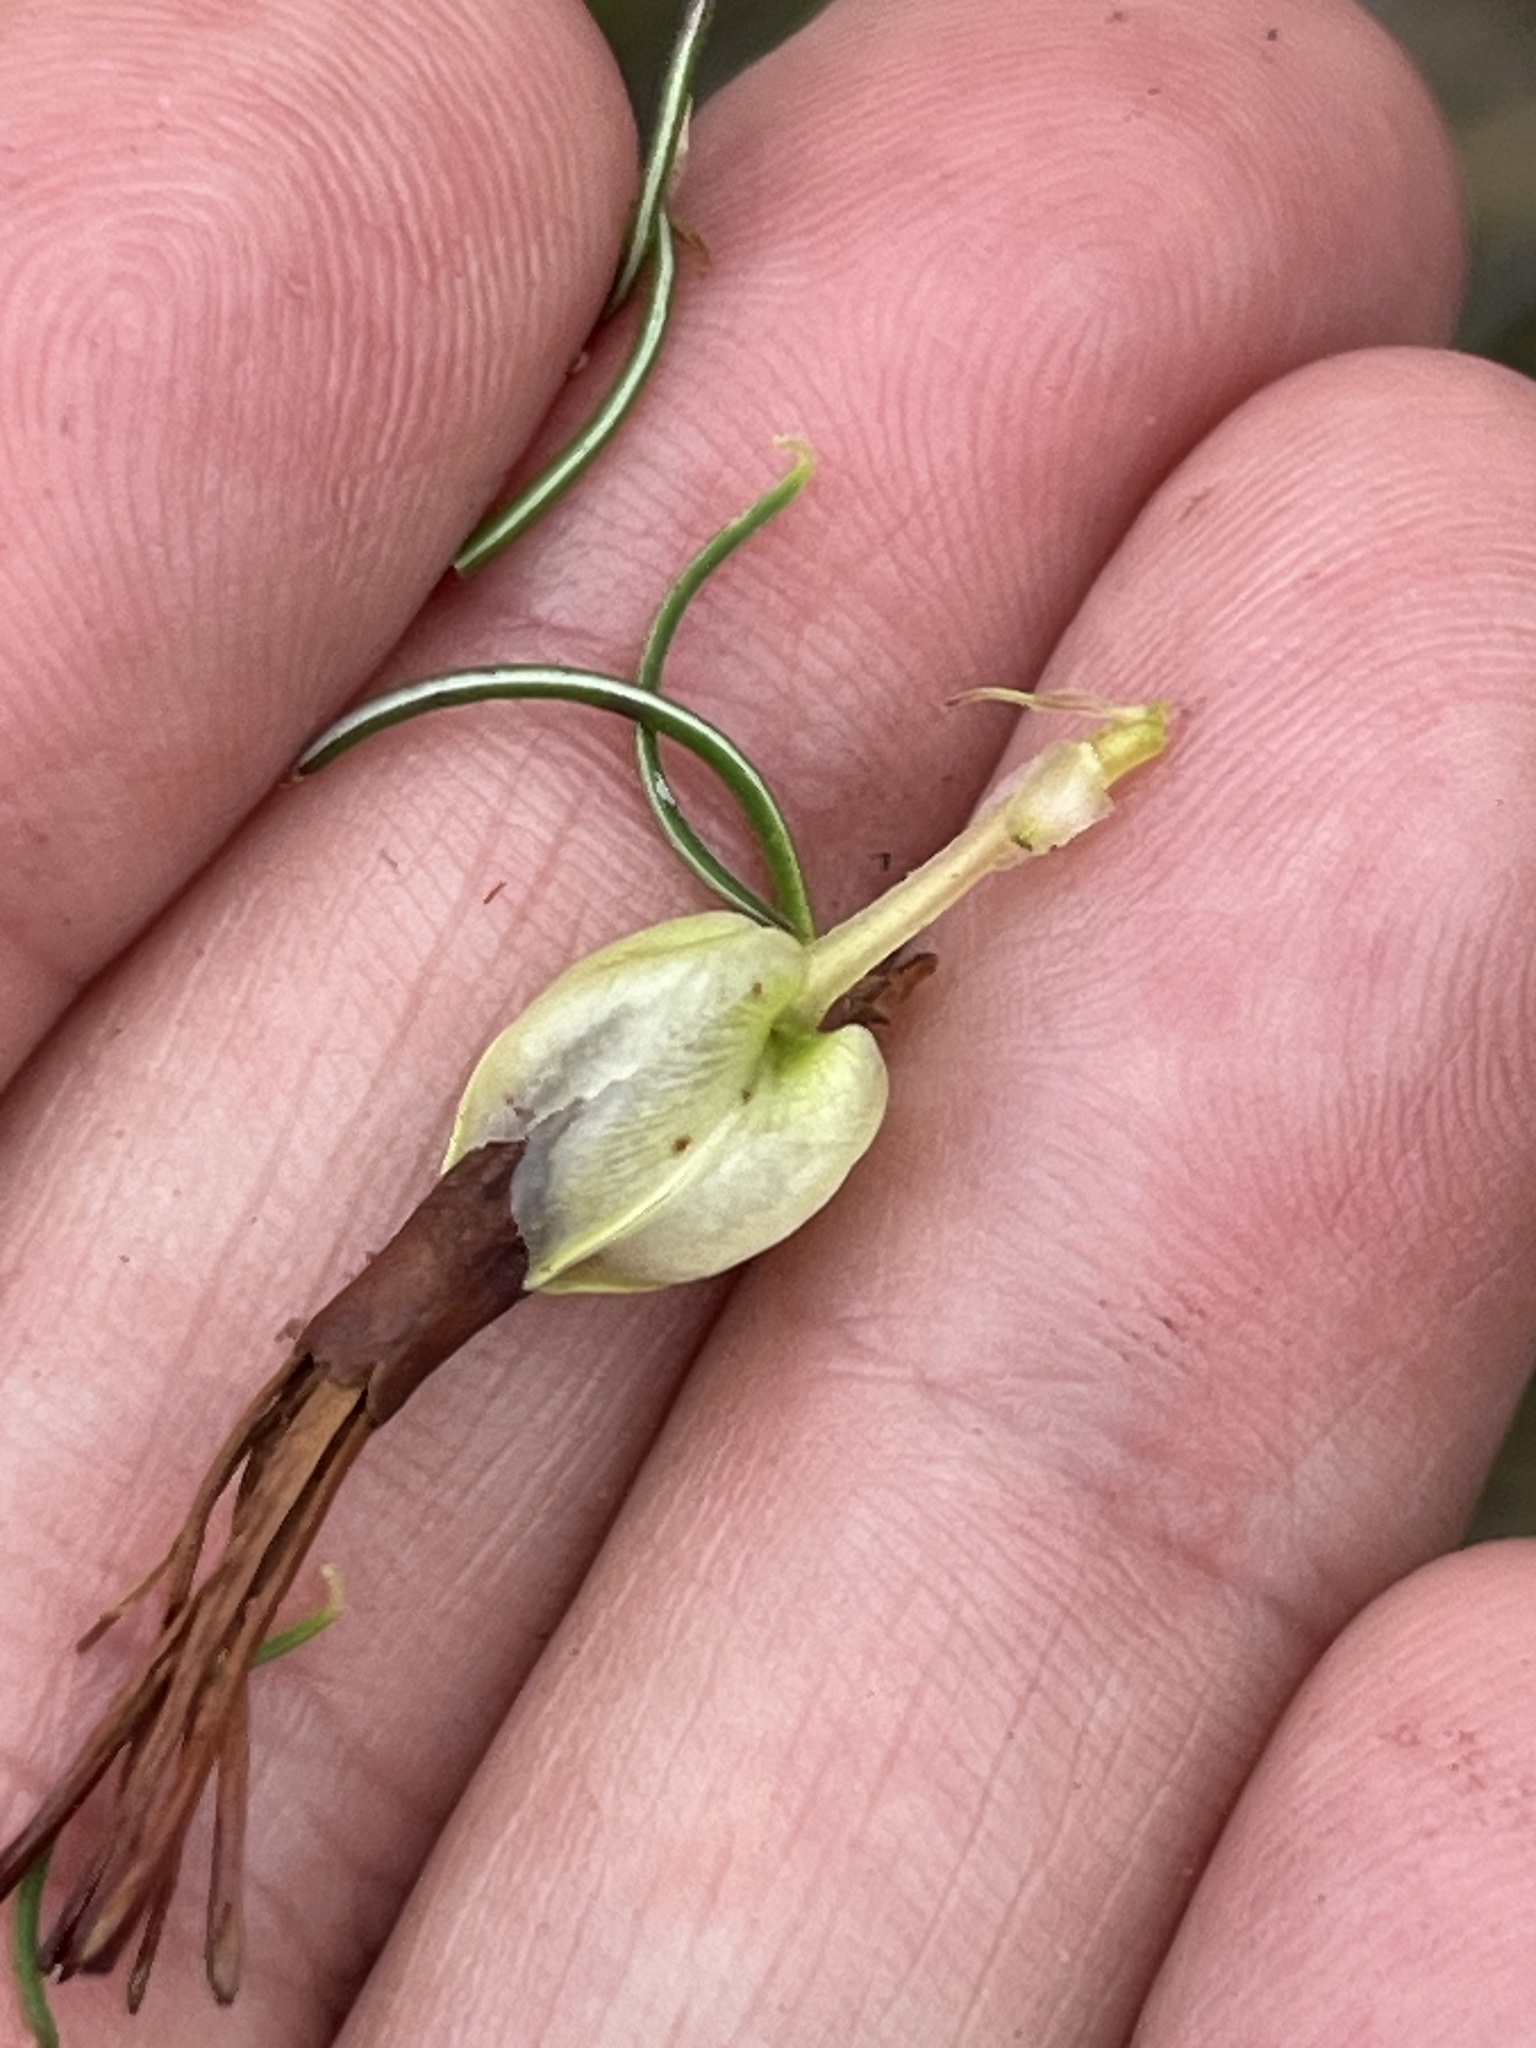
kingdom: Plantae
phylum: Tracheophyta
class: Magnoliopsida
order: Ericales
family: Ericaceae
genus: Erica
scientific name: Erica plukenetii
